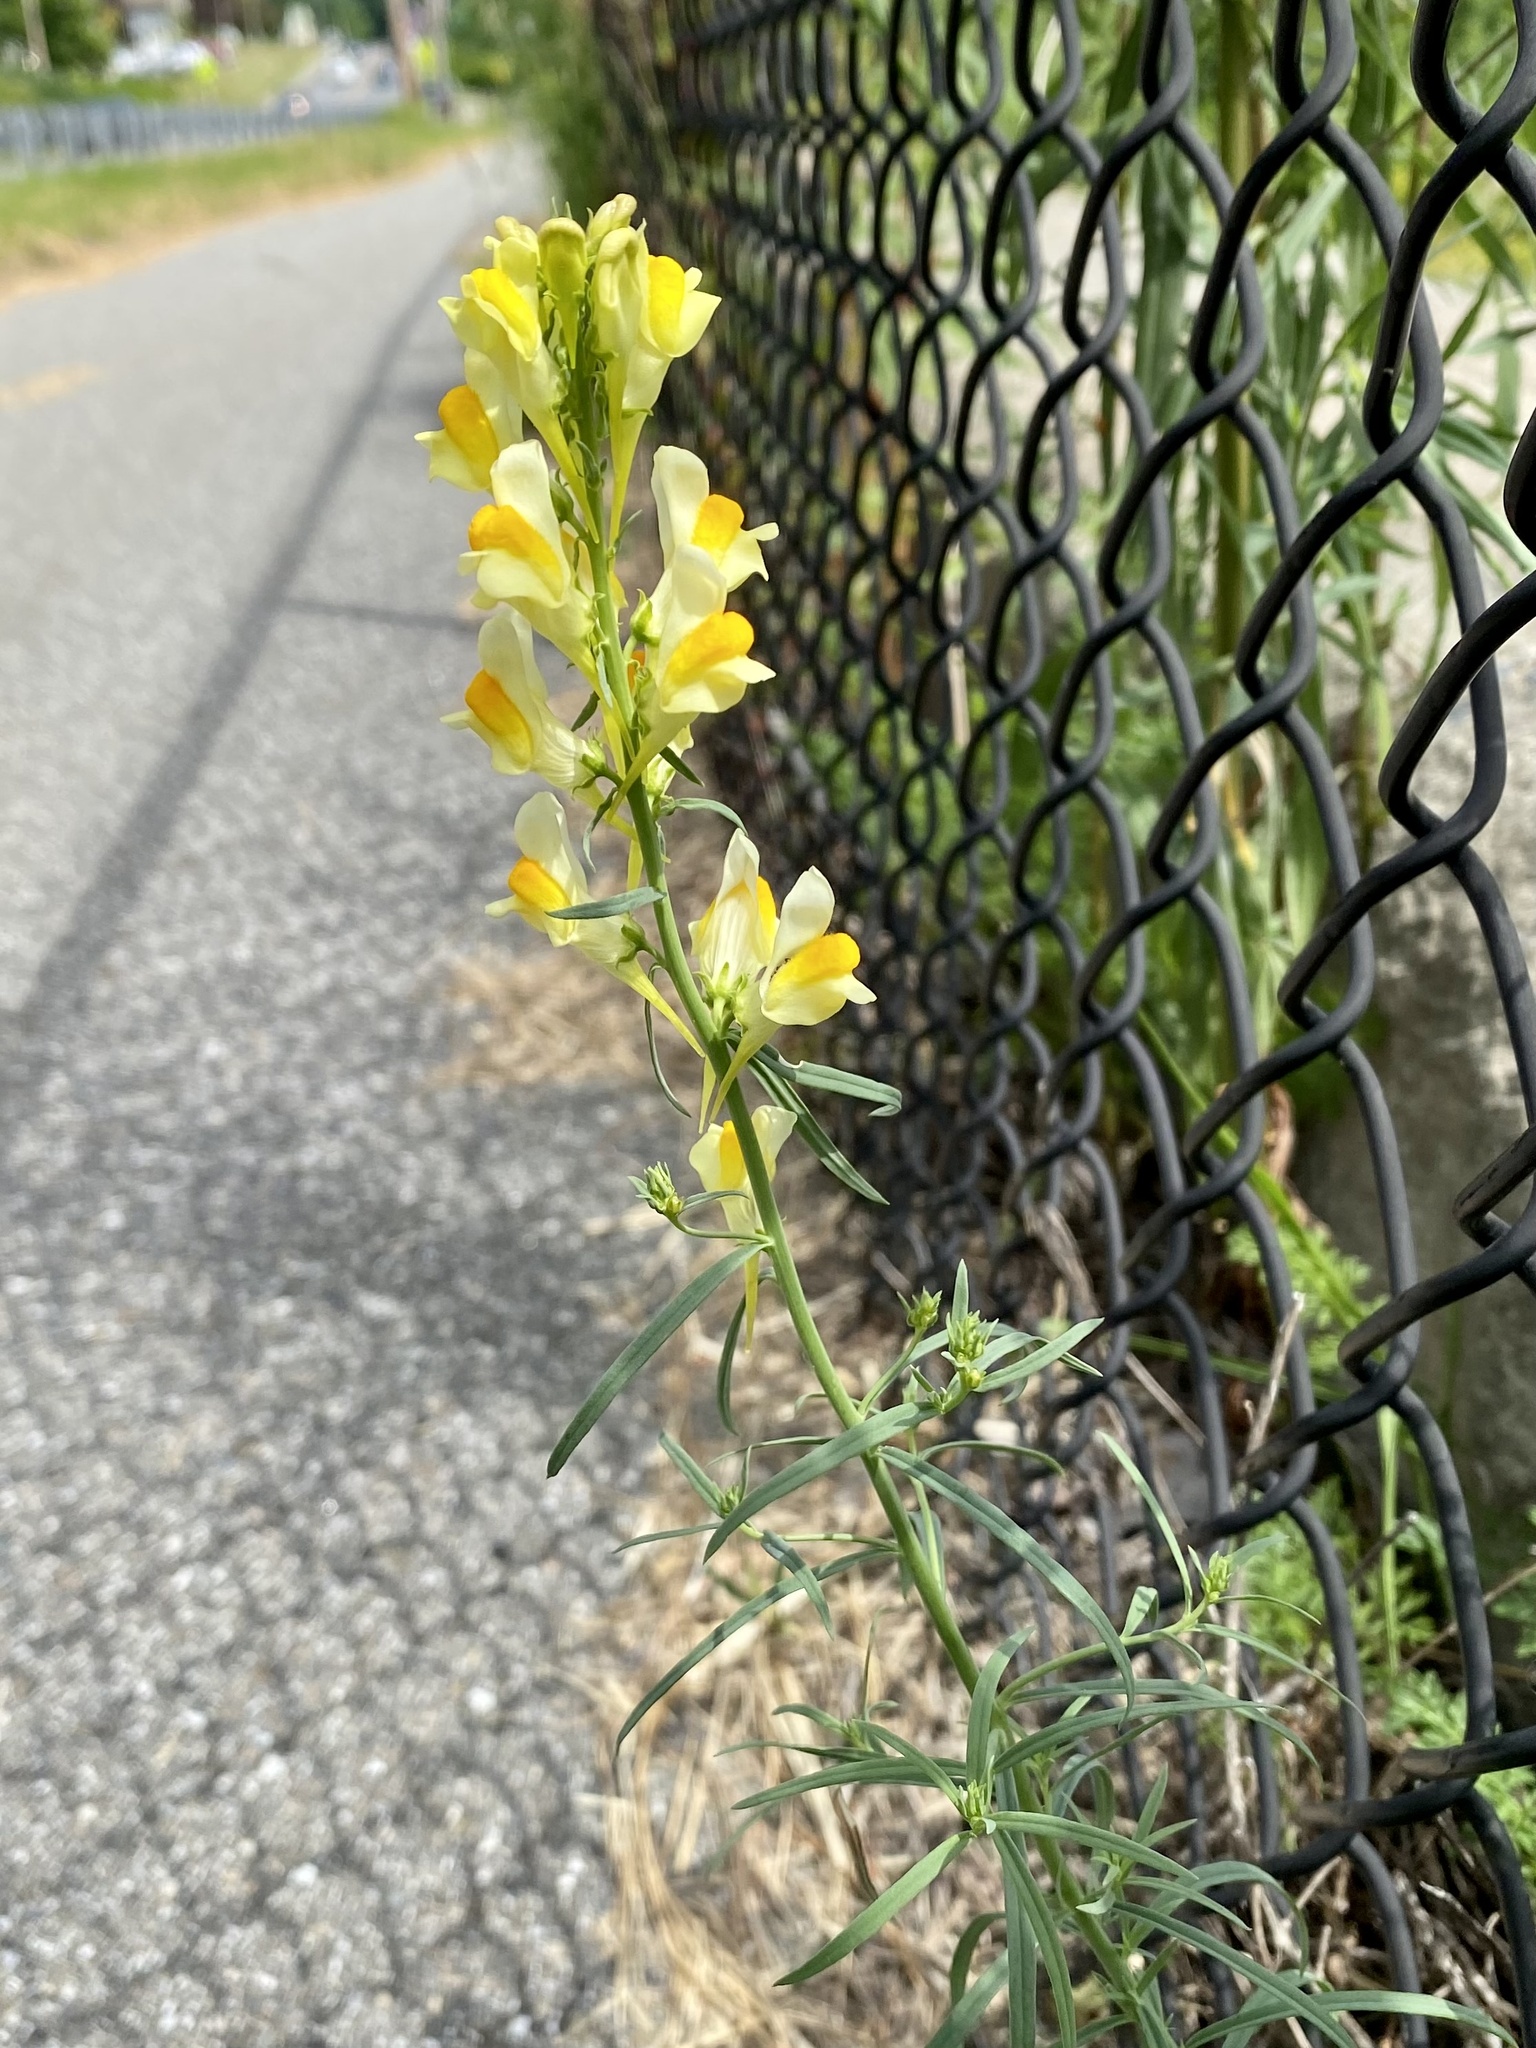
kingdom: Plantae
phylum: Tracheophyta
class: Magnoliopsida
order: Lamiales
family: Plantaginaceae
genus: Linaria
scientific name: Linaria vulgaris
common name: Butter and eggs
